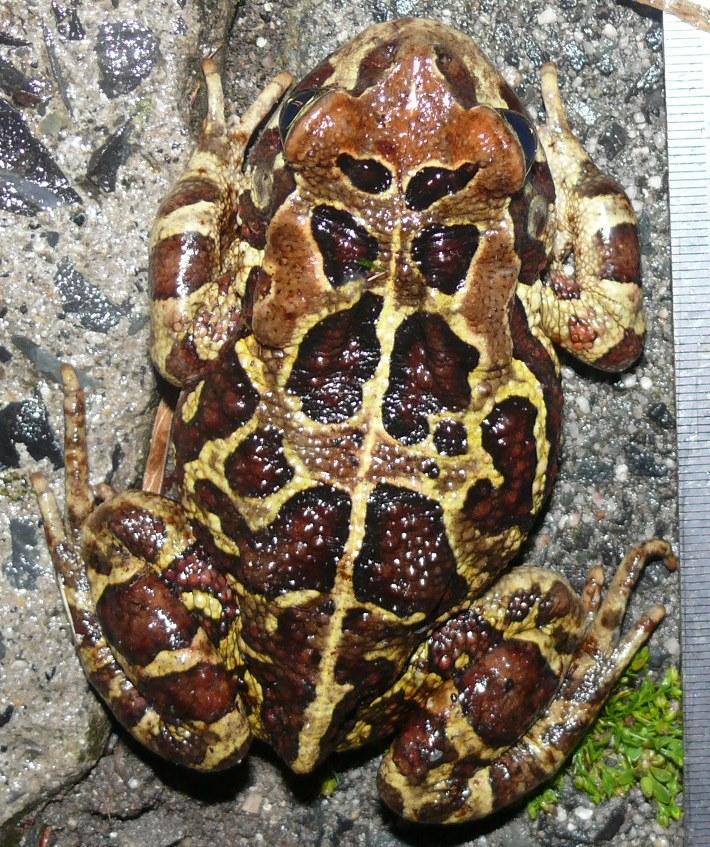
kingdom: Animalia
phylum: Chordata
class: Amphibia
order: Anura
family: Bufonidae
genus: Sclerophrys
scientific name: Sclerophrys pantherina
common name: Panther toad
